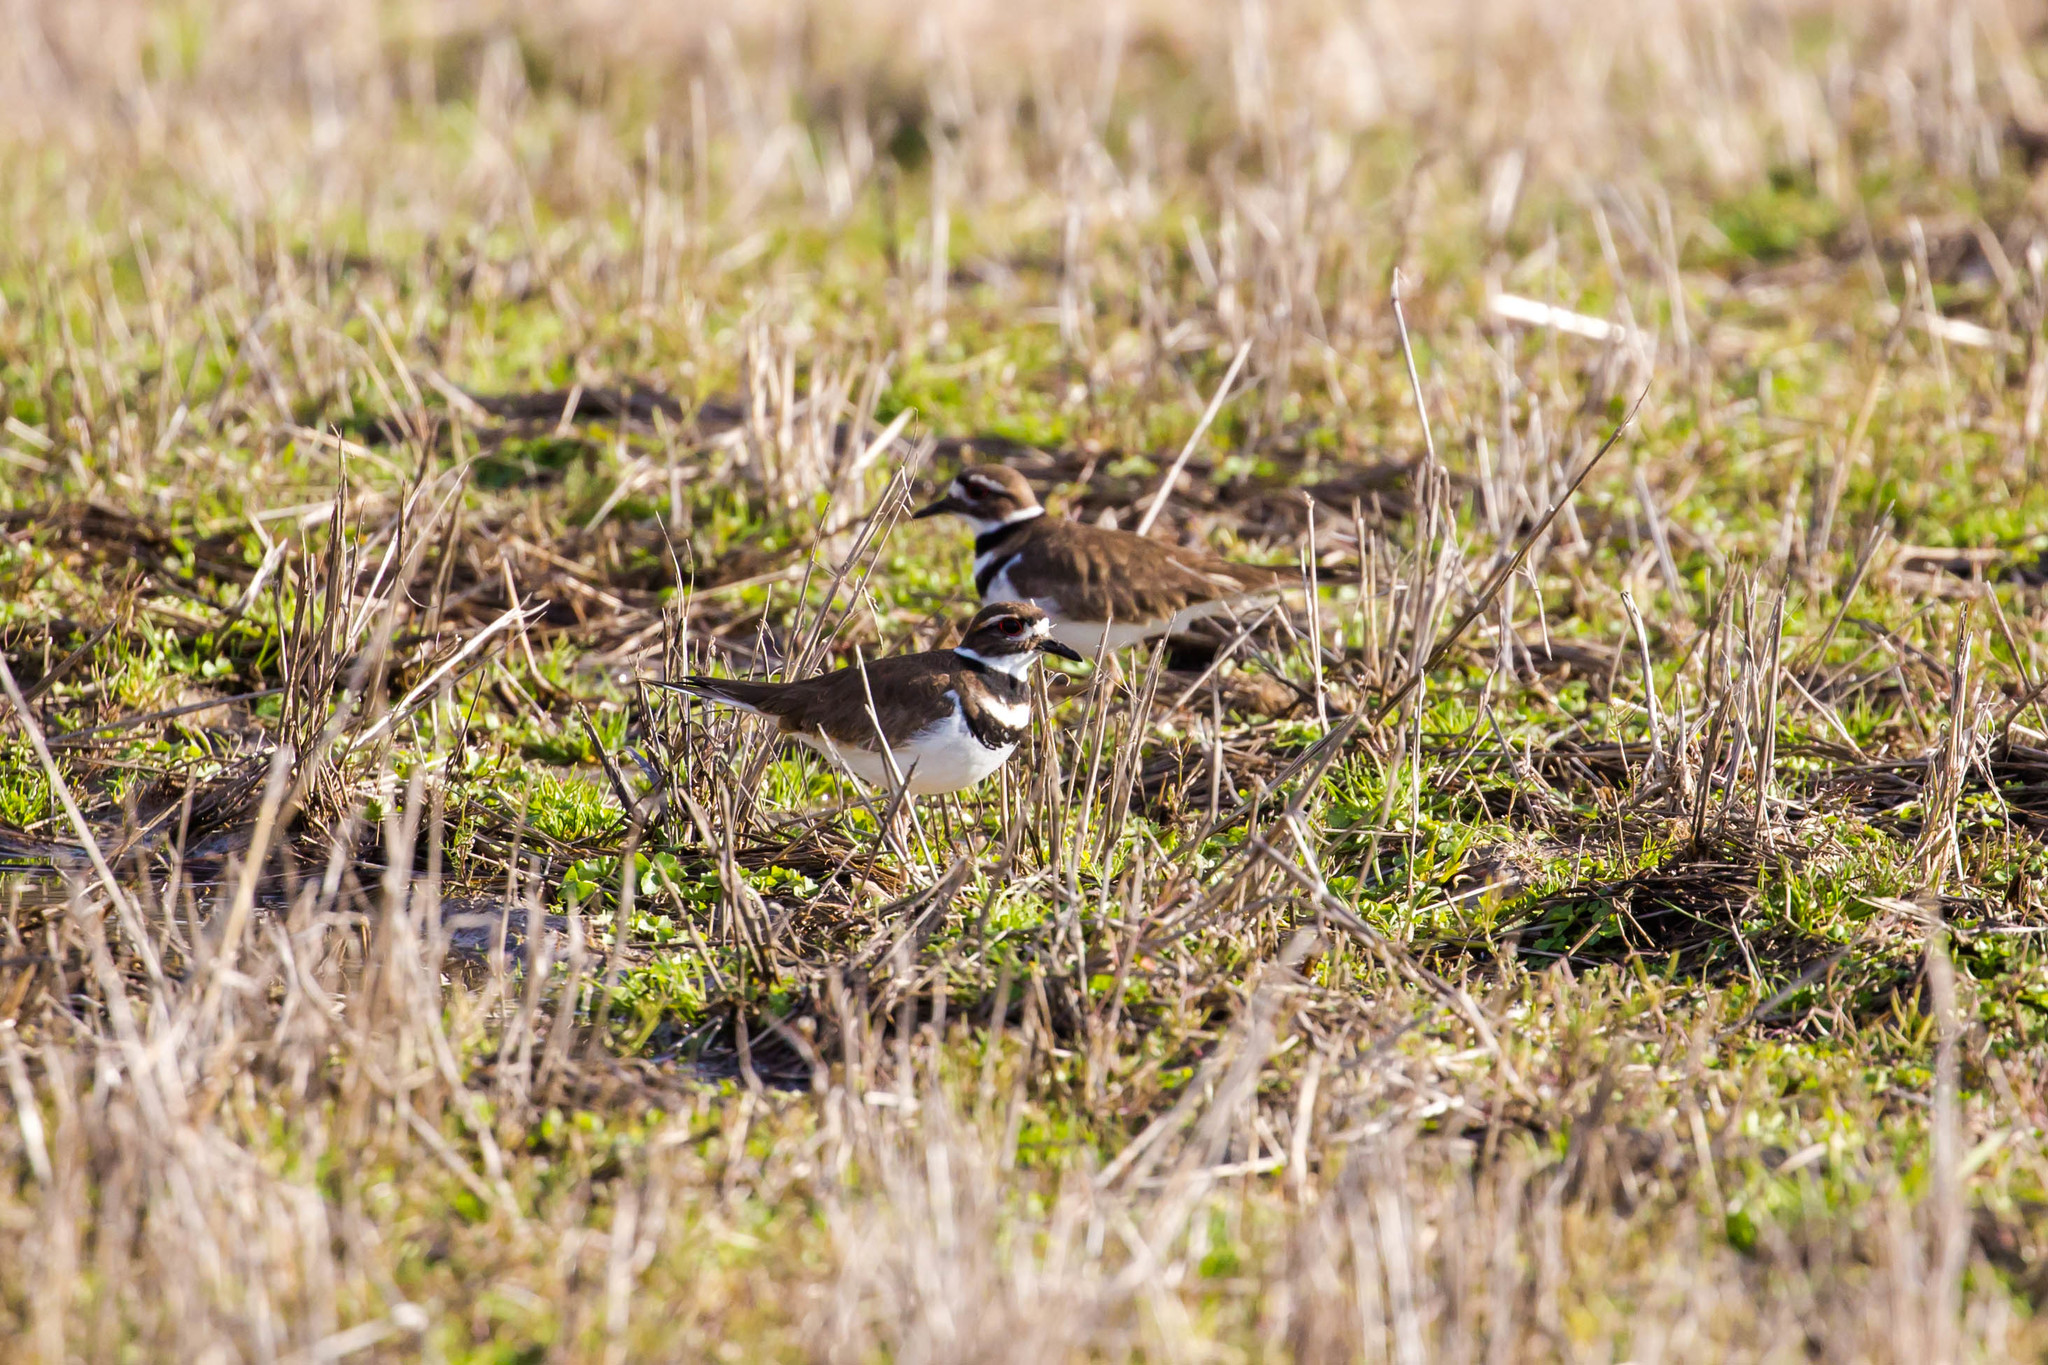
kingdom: Animalia
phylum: Chordata
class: Aves
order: Charadriiformes
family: Charadriidae
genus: Charadrius
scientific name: Charadrius vociferus
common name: Killdeer
